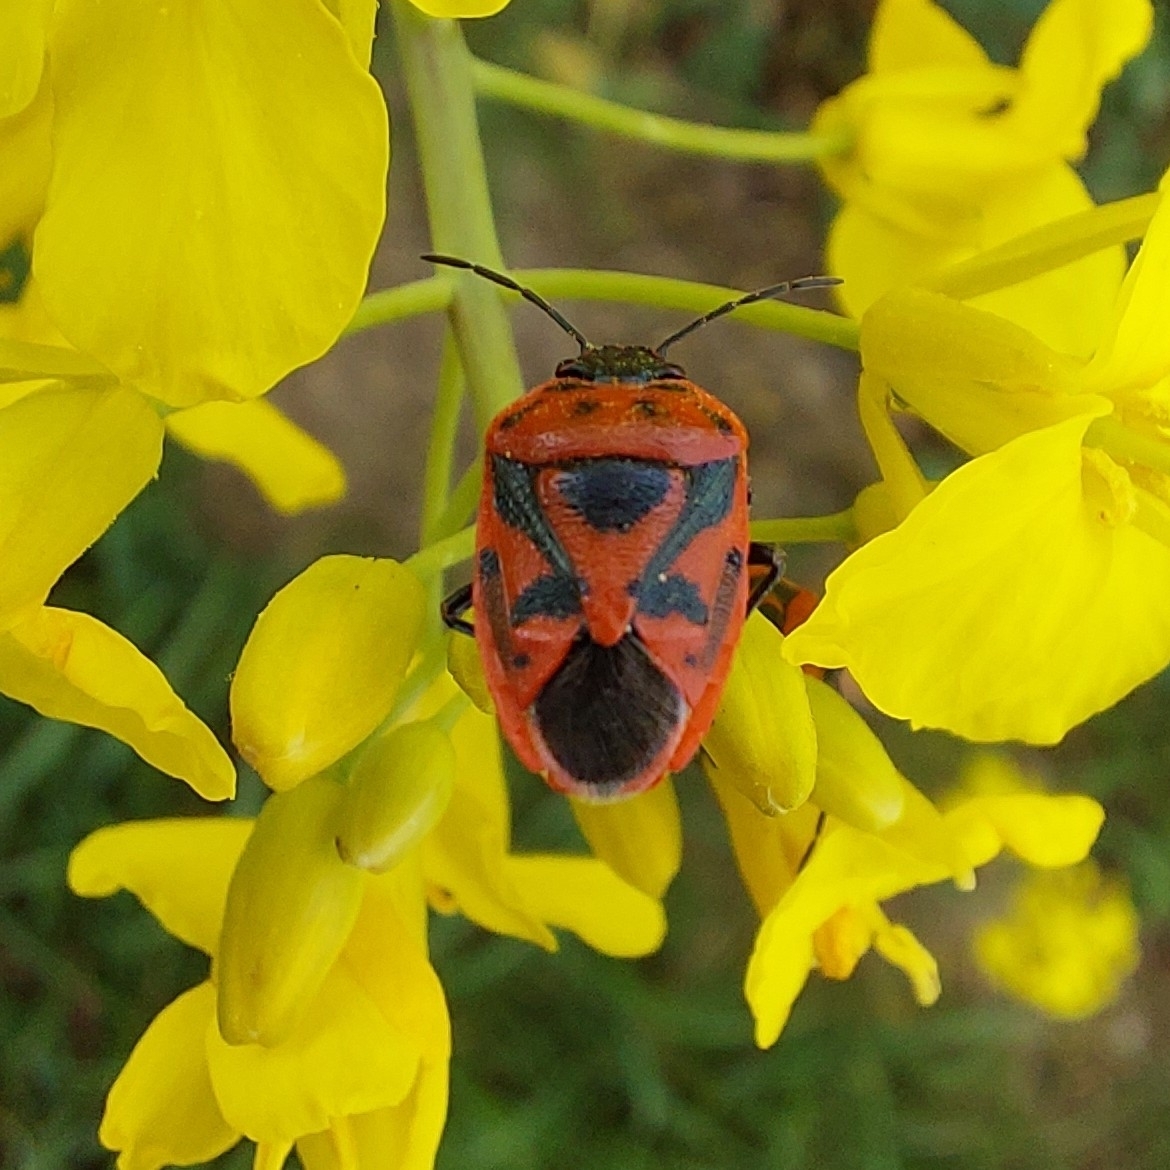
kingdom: Animalia
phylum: Arthropoda
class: Insecta
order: Hemiptera
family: Pentatomidae
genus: Eurydema
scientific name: Eurydema ornata
